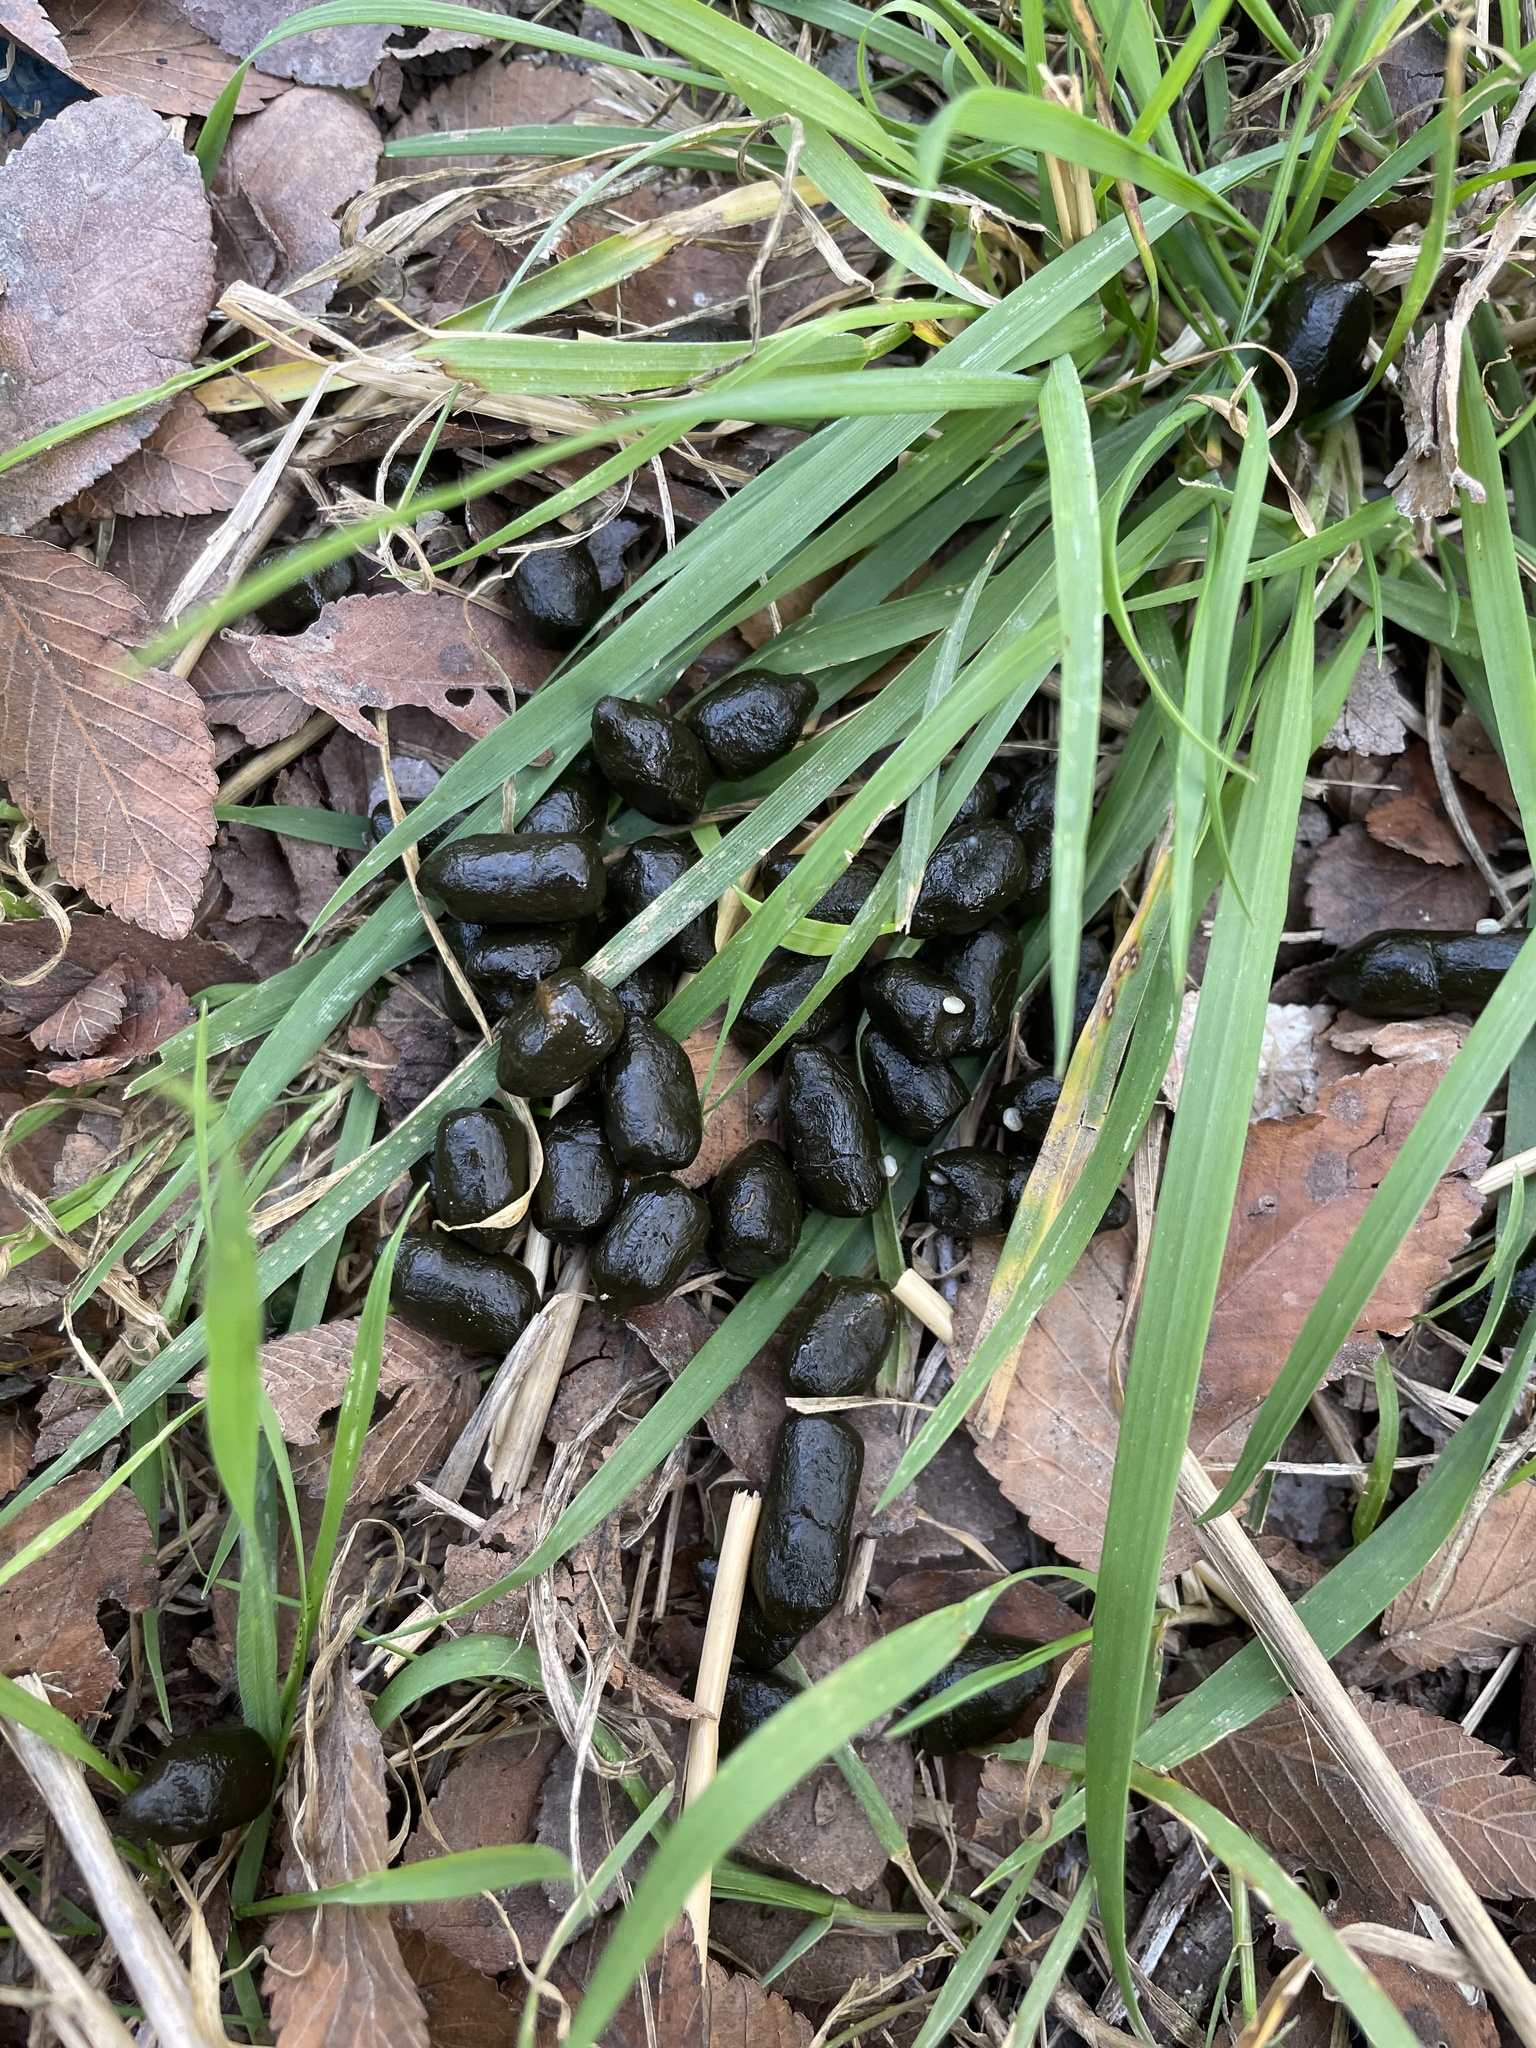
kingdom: Animalia
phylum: Chordata
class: Mammalia
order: Artiodactyla
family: Cervidae
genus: Odocoileus
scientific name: Odocoileus virginianus
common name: White-tailed deer
